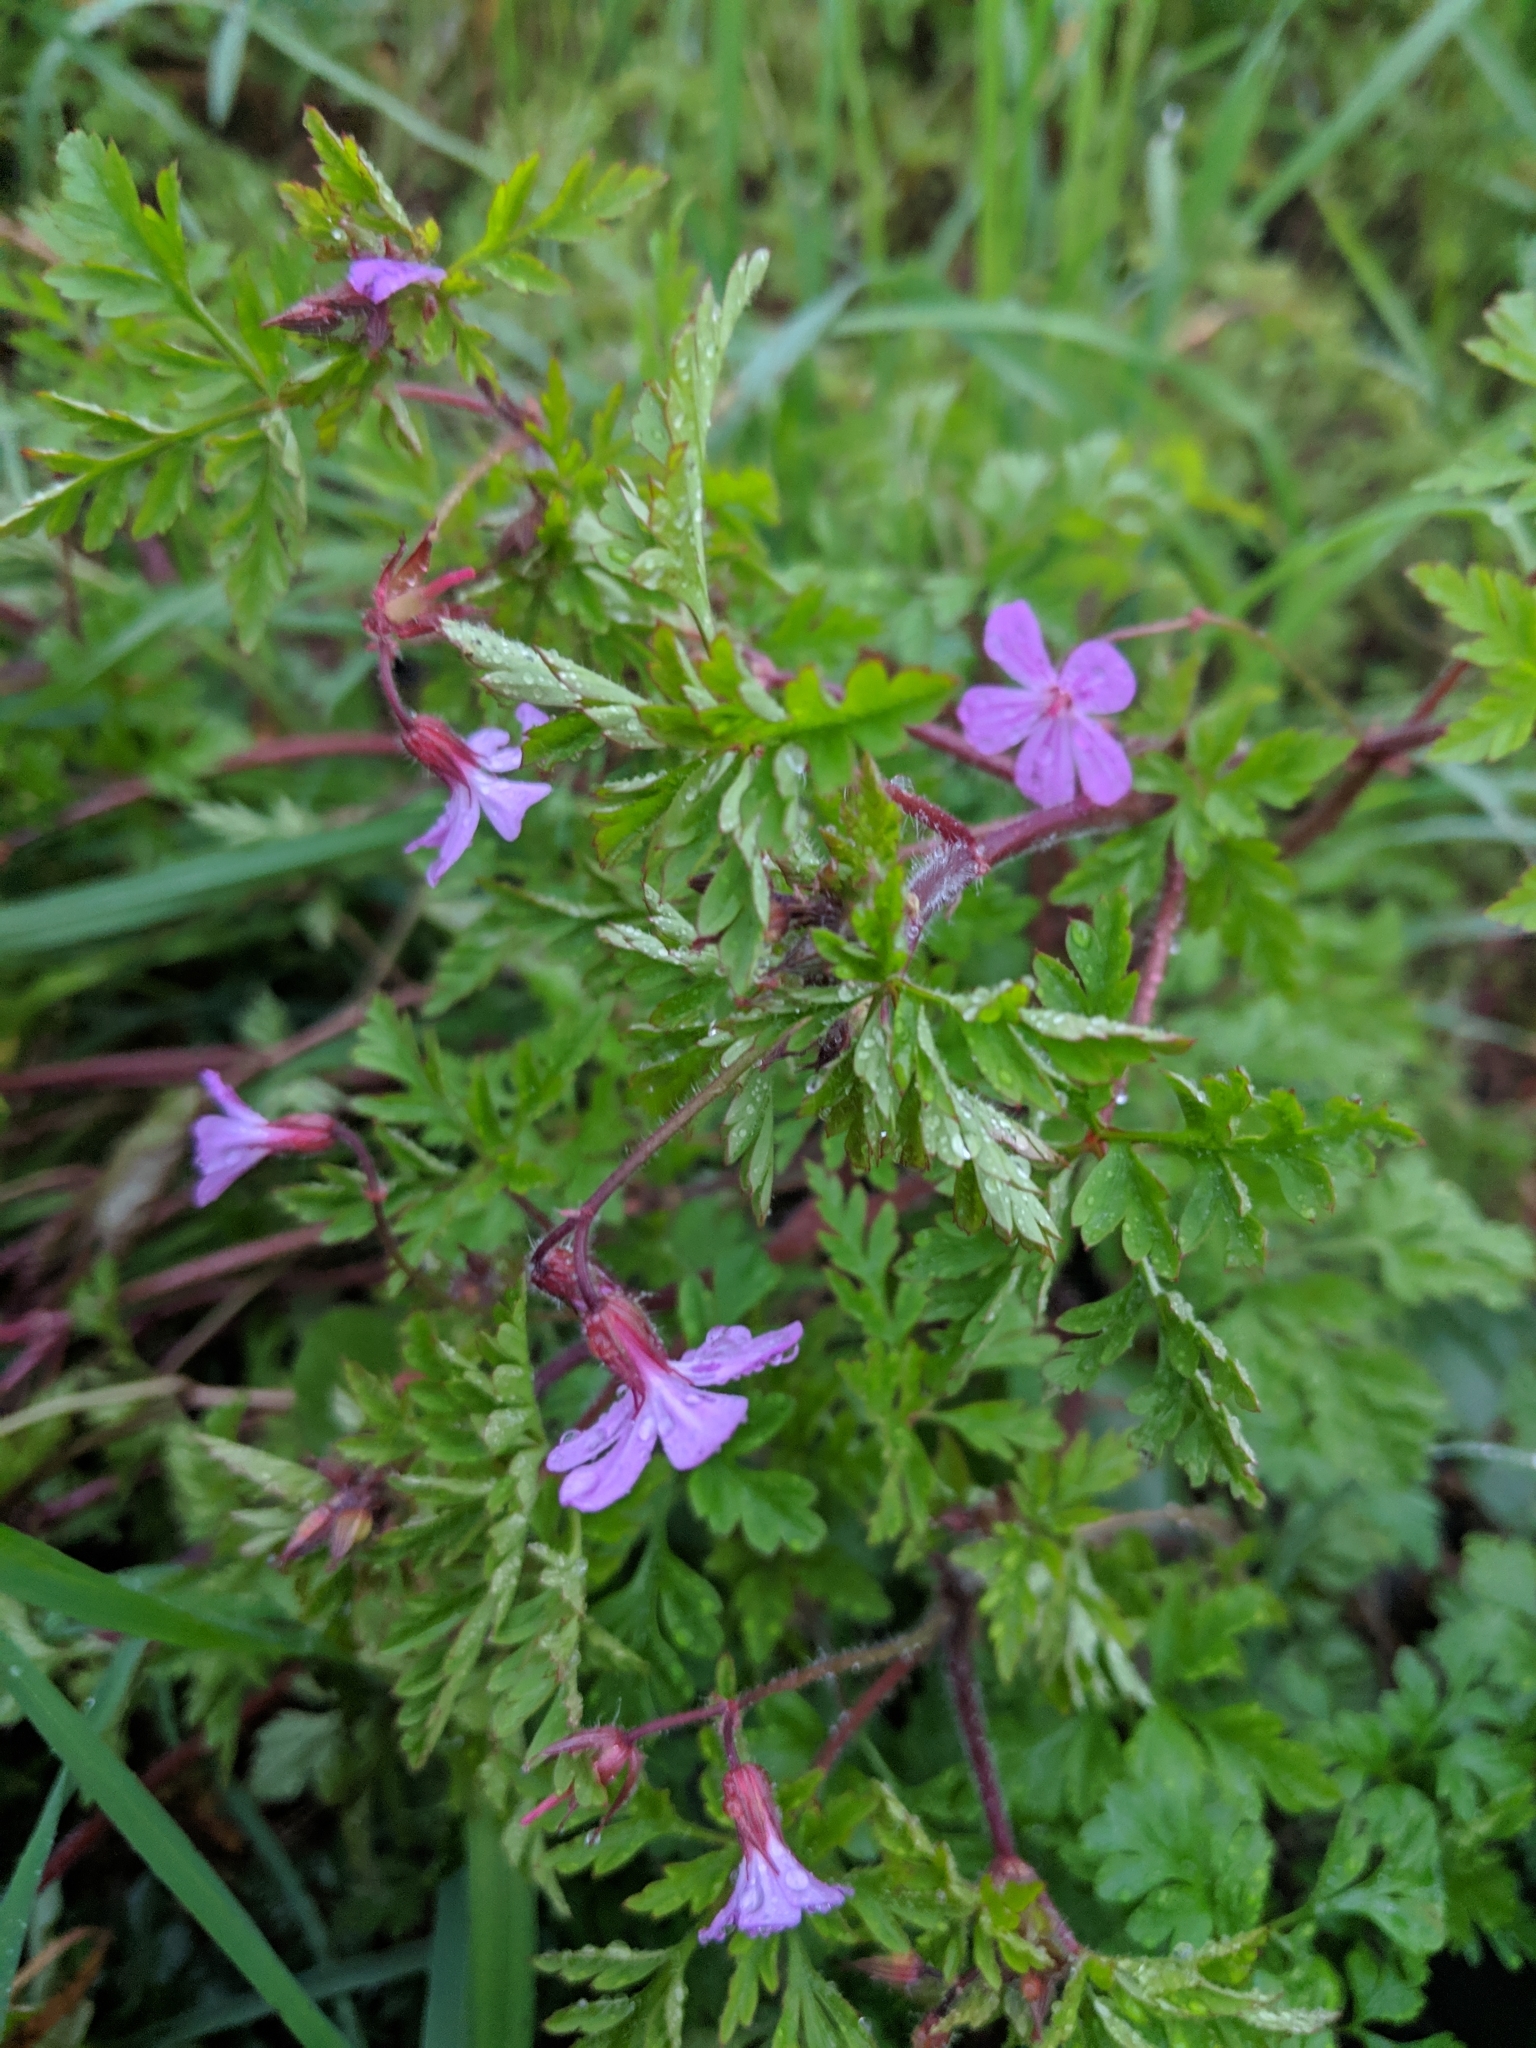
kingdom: Plantae
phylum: Tracheophyta
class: Magnoliopsida
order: Geraniales
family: Geraniaceae
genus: Geranium
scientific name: Geranium robertianum
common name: Herb-robert
